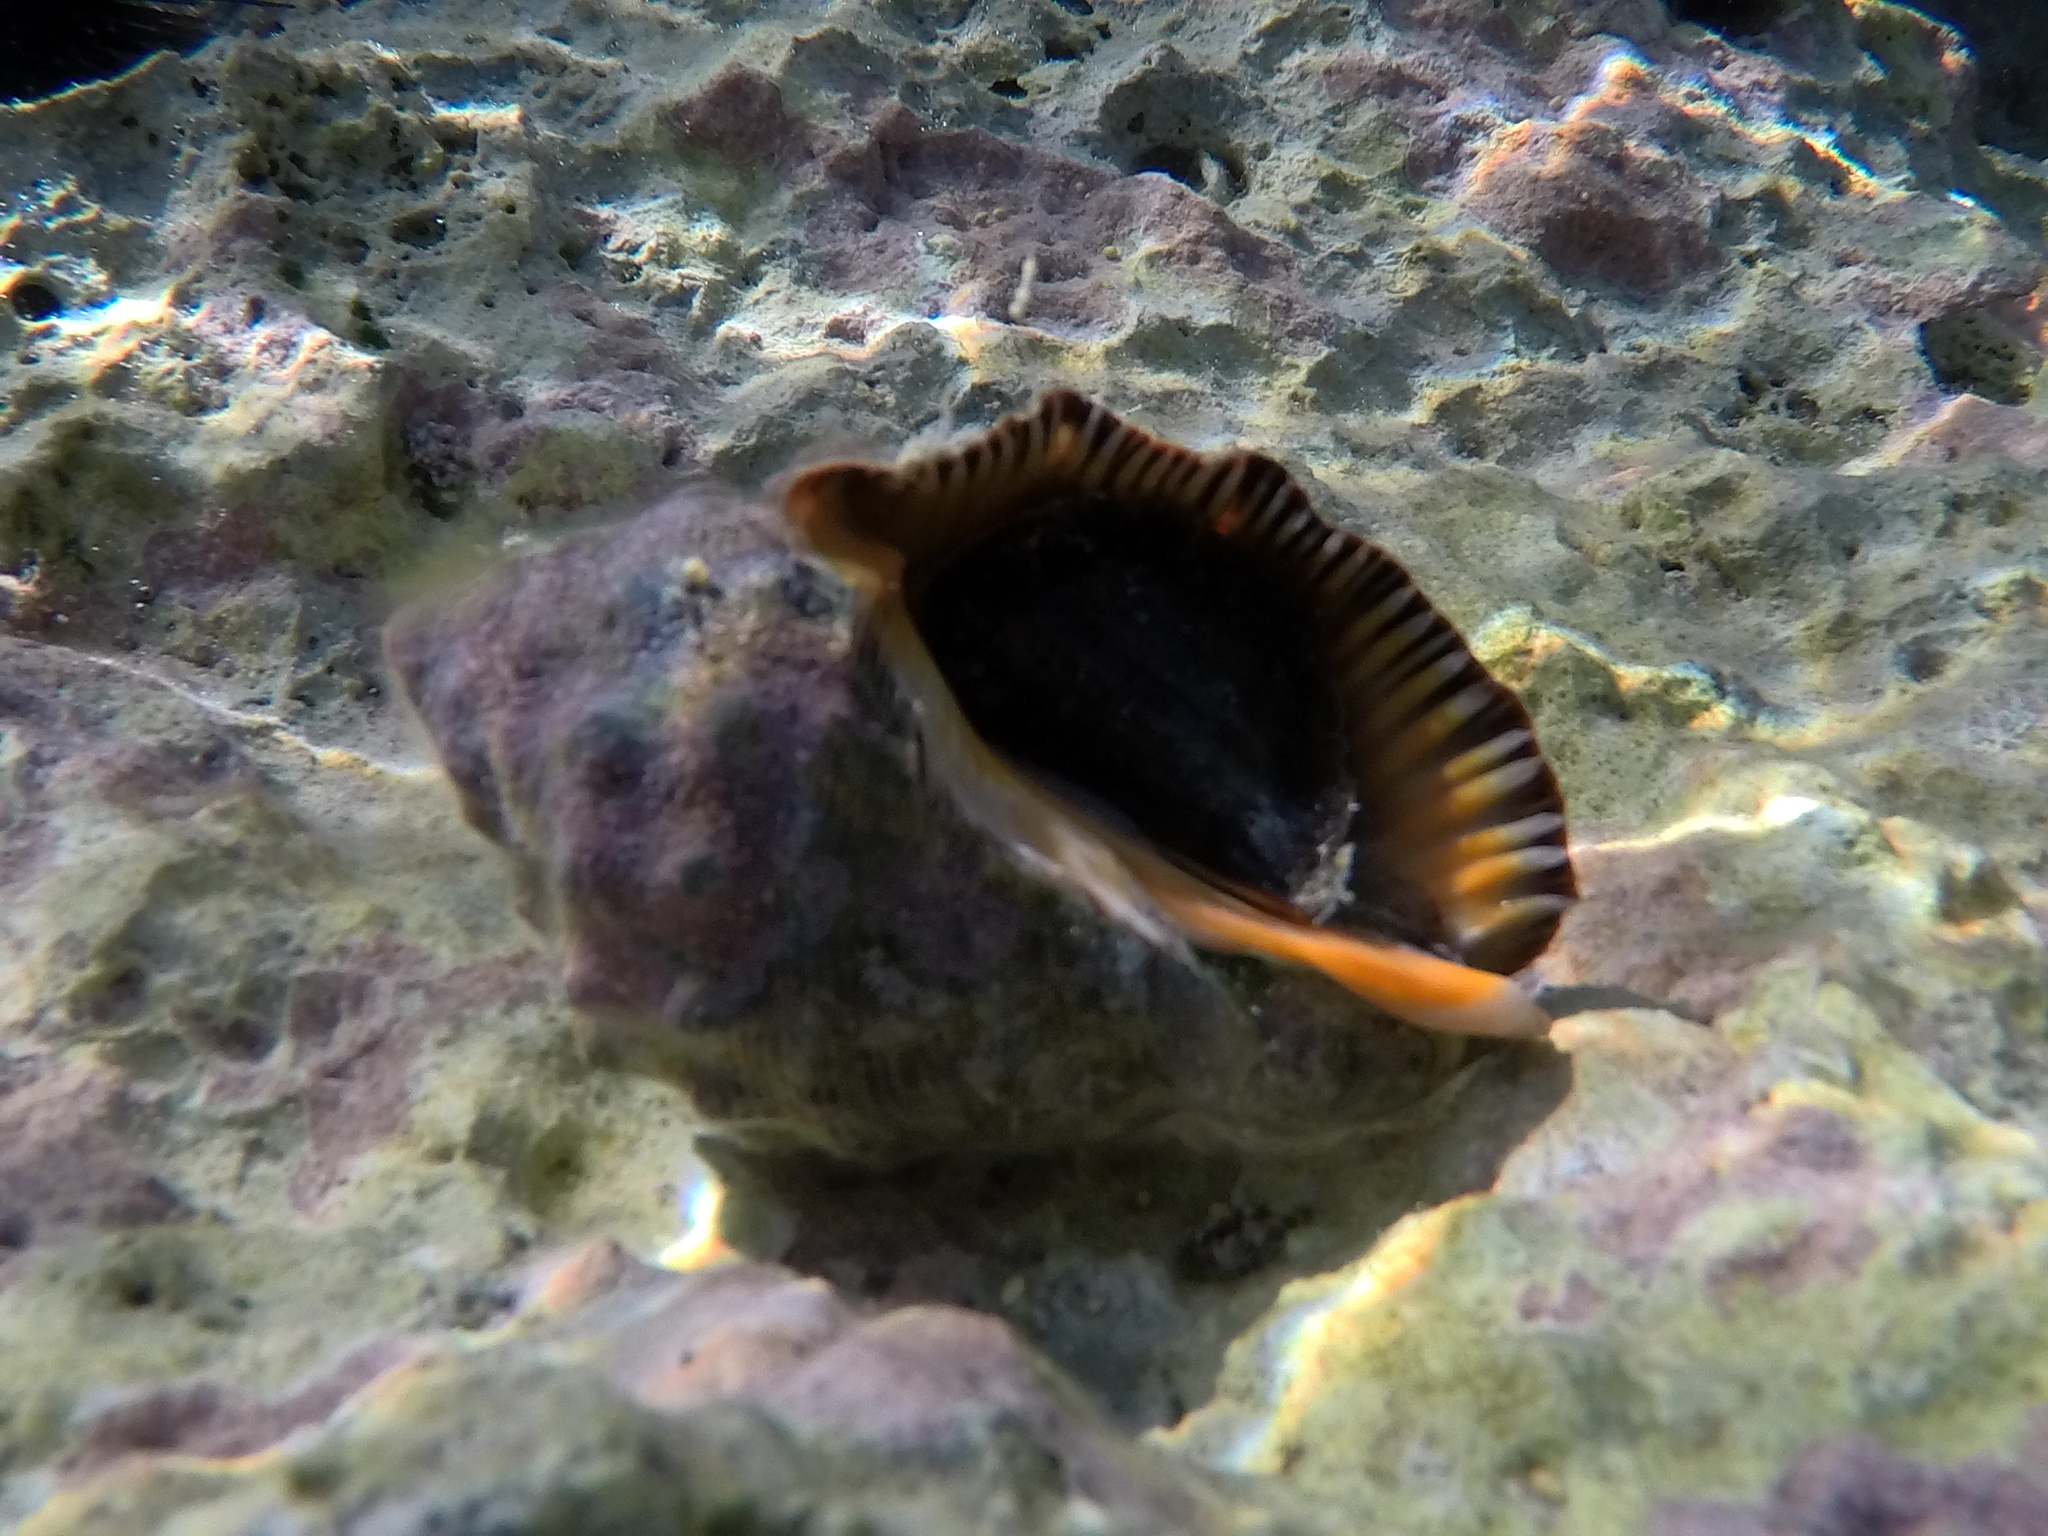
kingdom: Animalia
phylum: Mollusca
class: Gastropoda
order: Neogastropoda
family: Muricidae
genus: Stramonita
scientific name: Stramonita haemastoma
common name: Florida dog winkle
